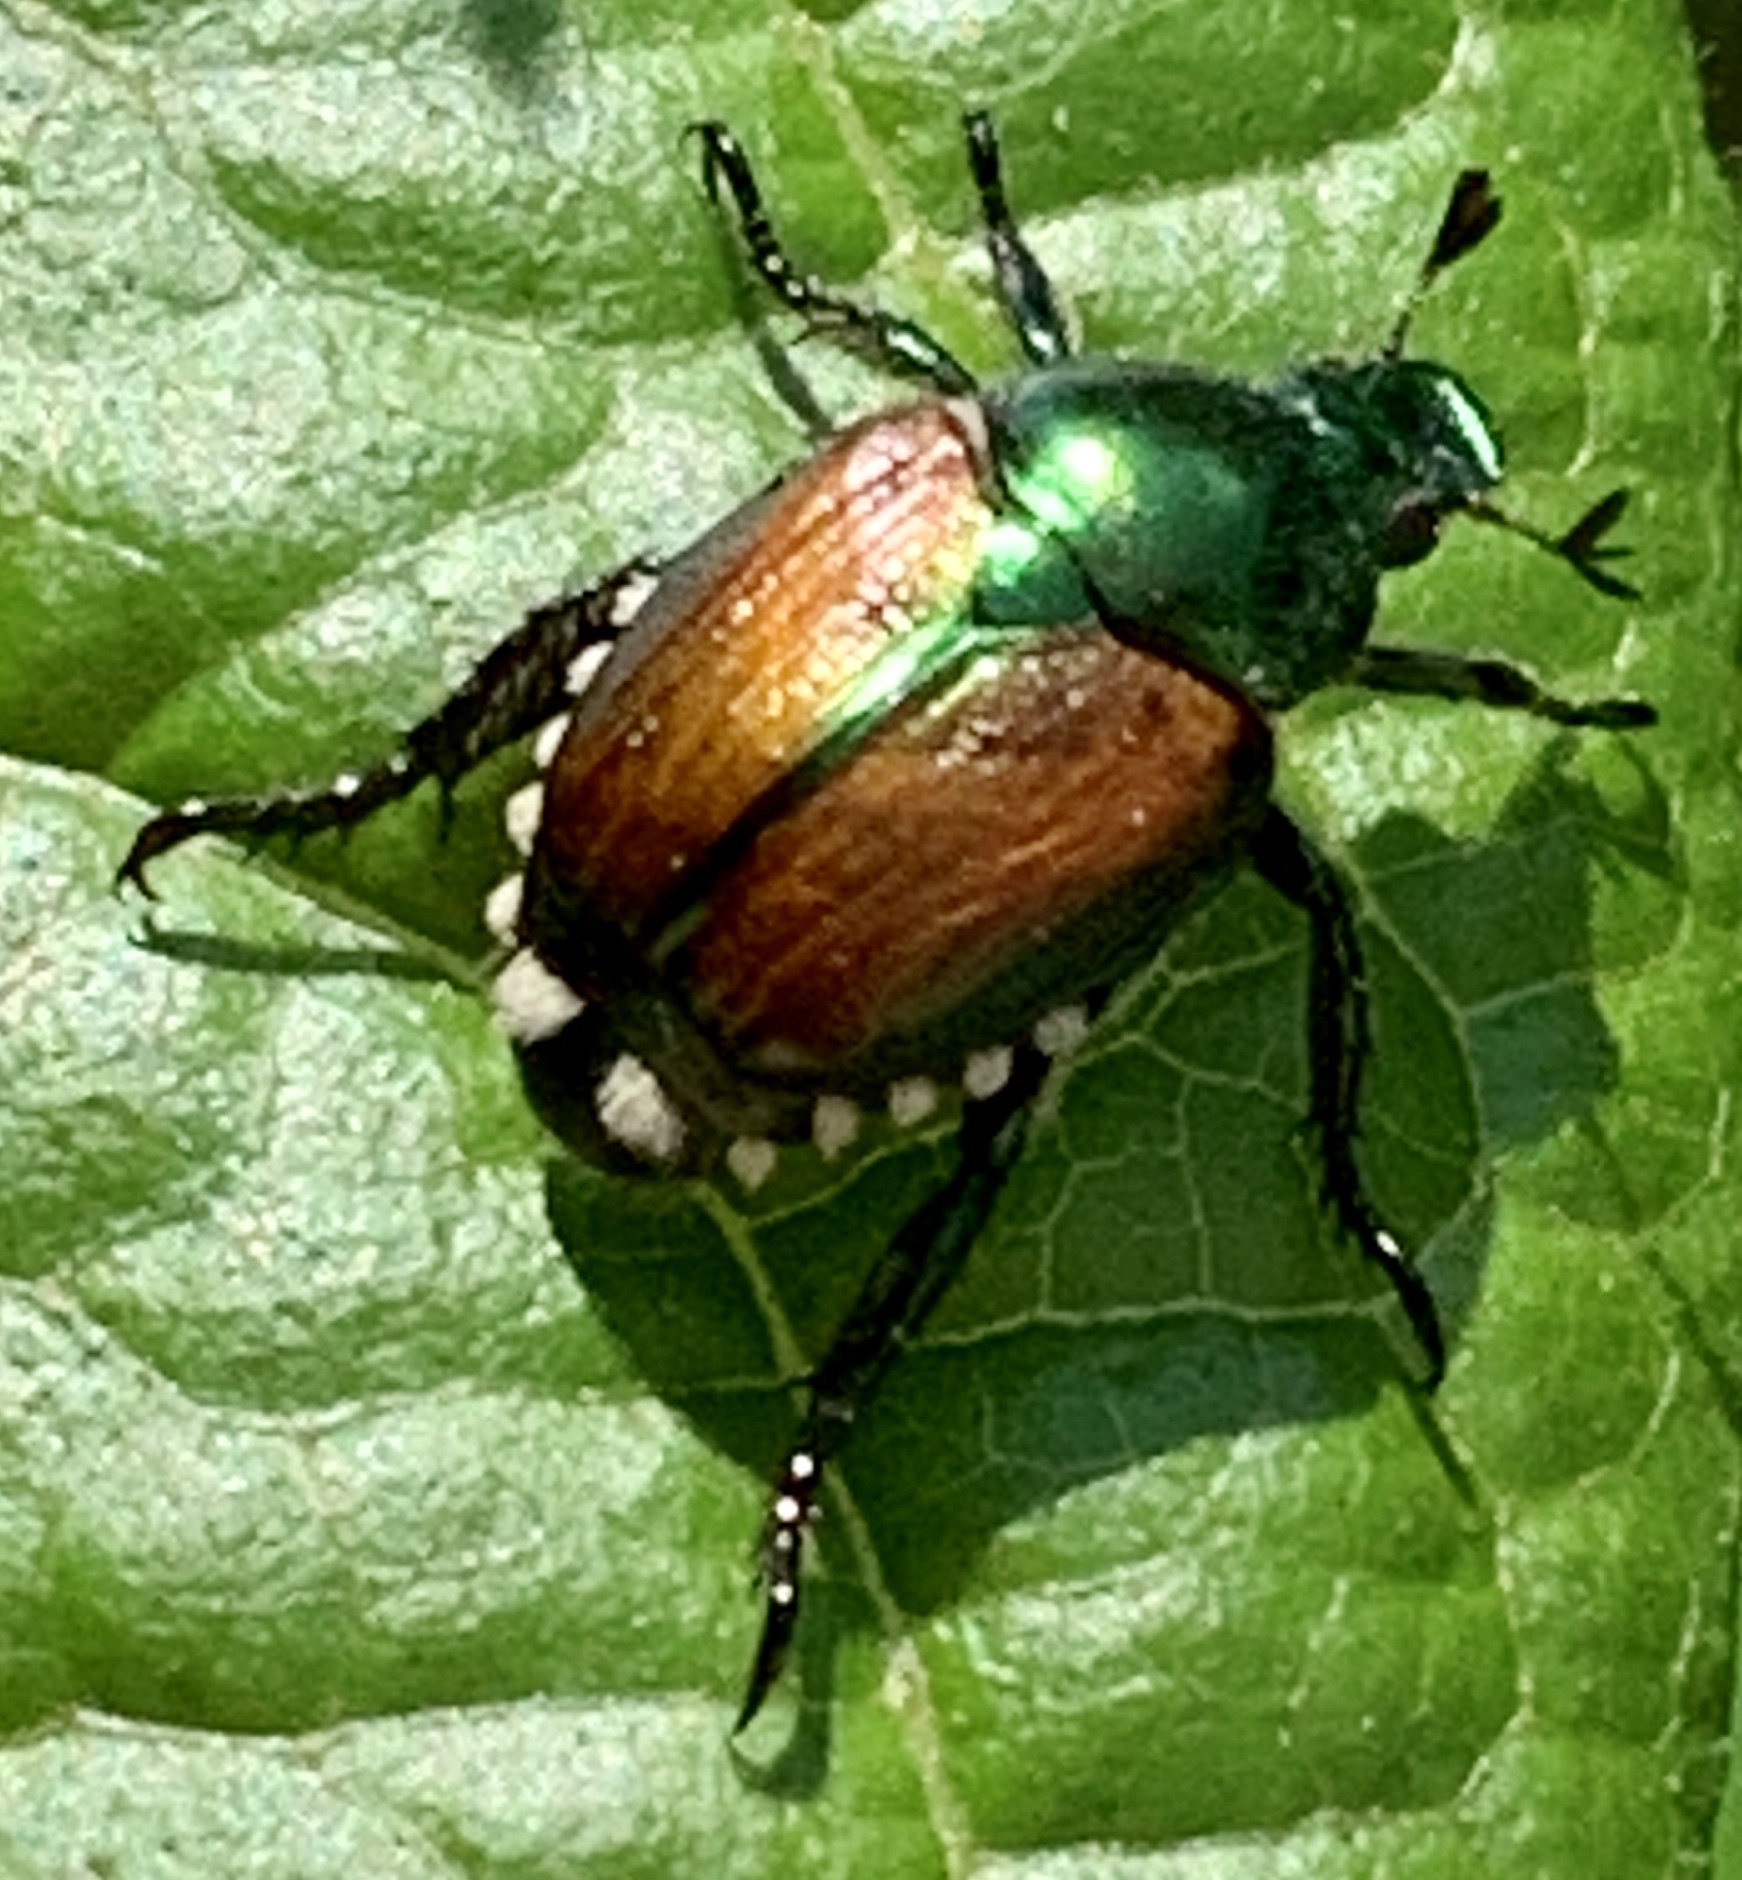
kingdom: Animalia
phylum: Arthropoda
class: Insecta
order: Coleoptera
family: Scarabaeidae
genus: Popillia
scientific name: Popillia japonica
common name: Japanese beetle
